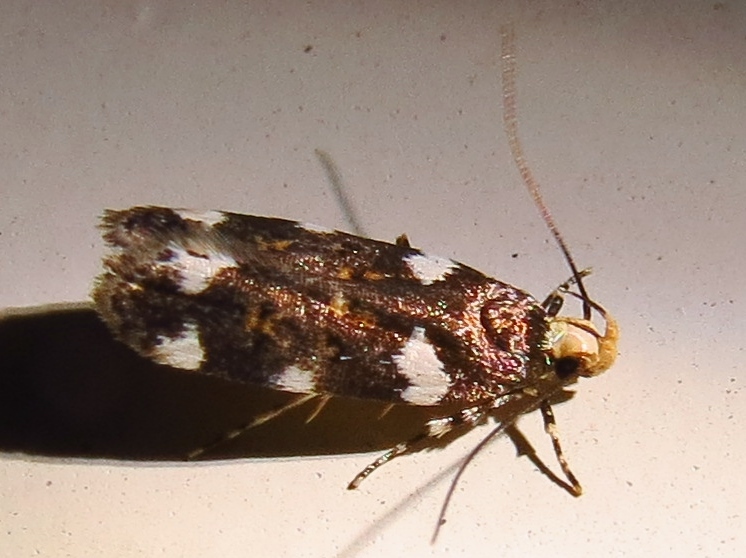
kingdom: Animalia
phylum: Arthropoda
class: Insecta
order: Lepidoptera
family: Gelechiidae
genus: Fascista
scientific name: Fascista cercerisella
